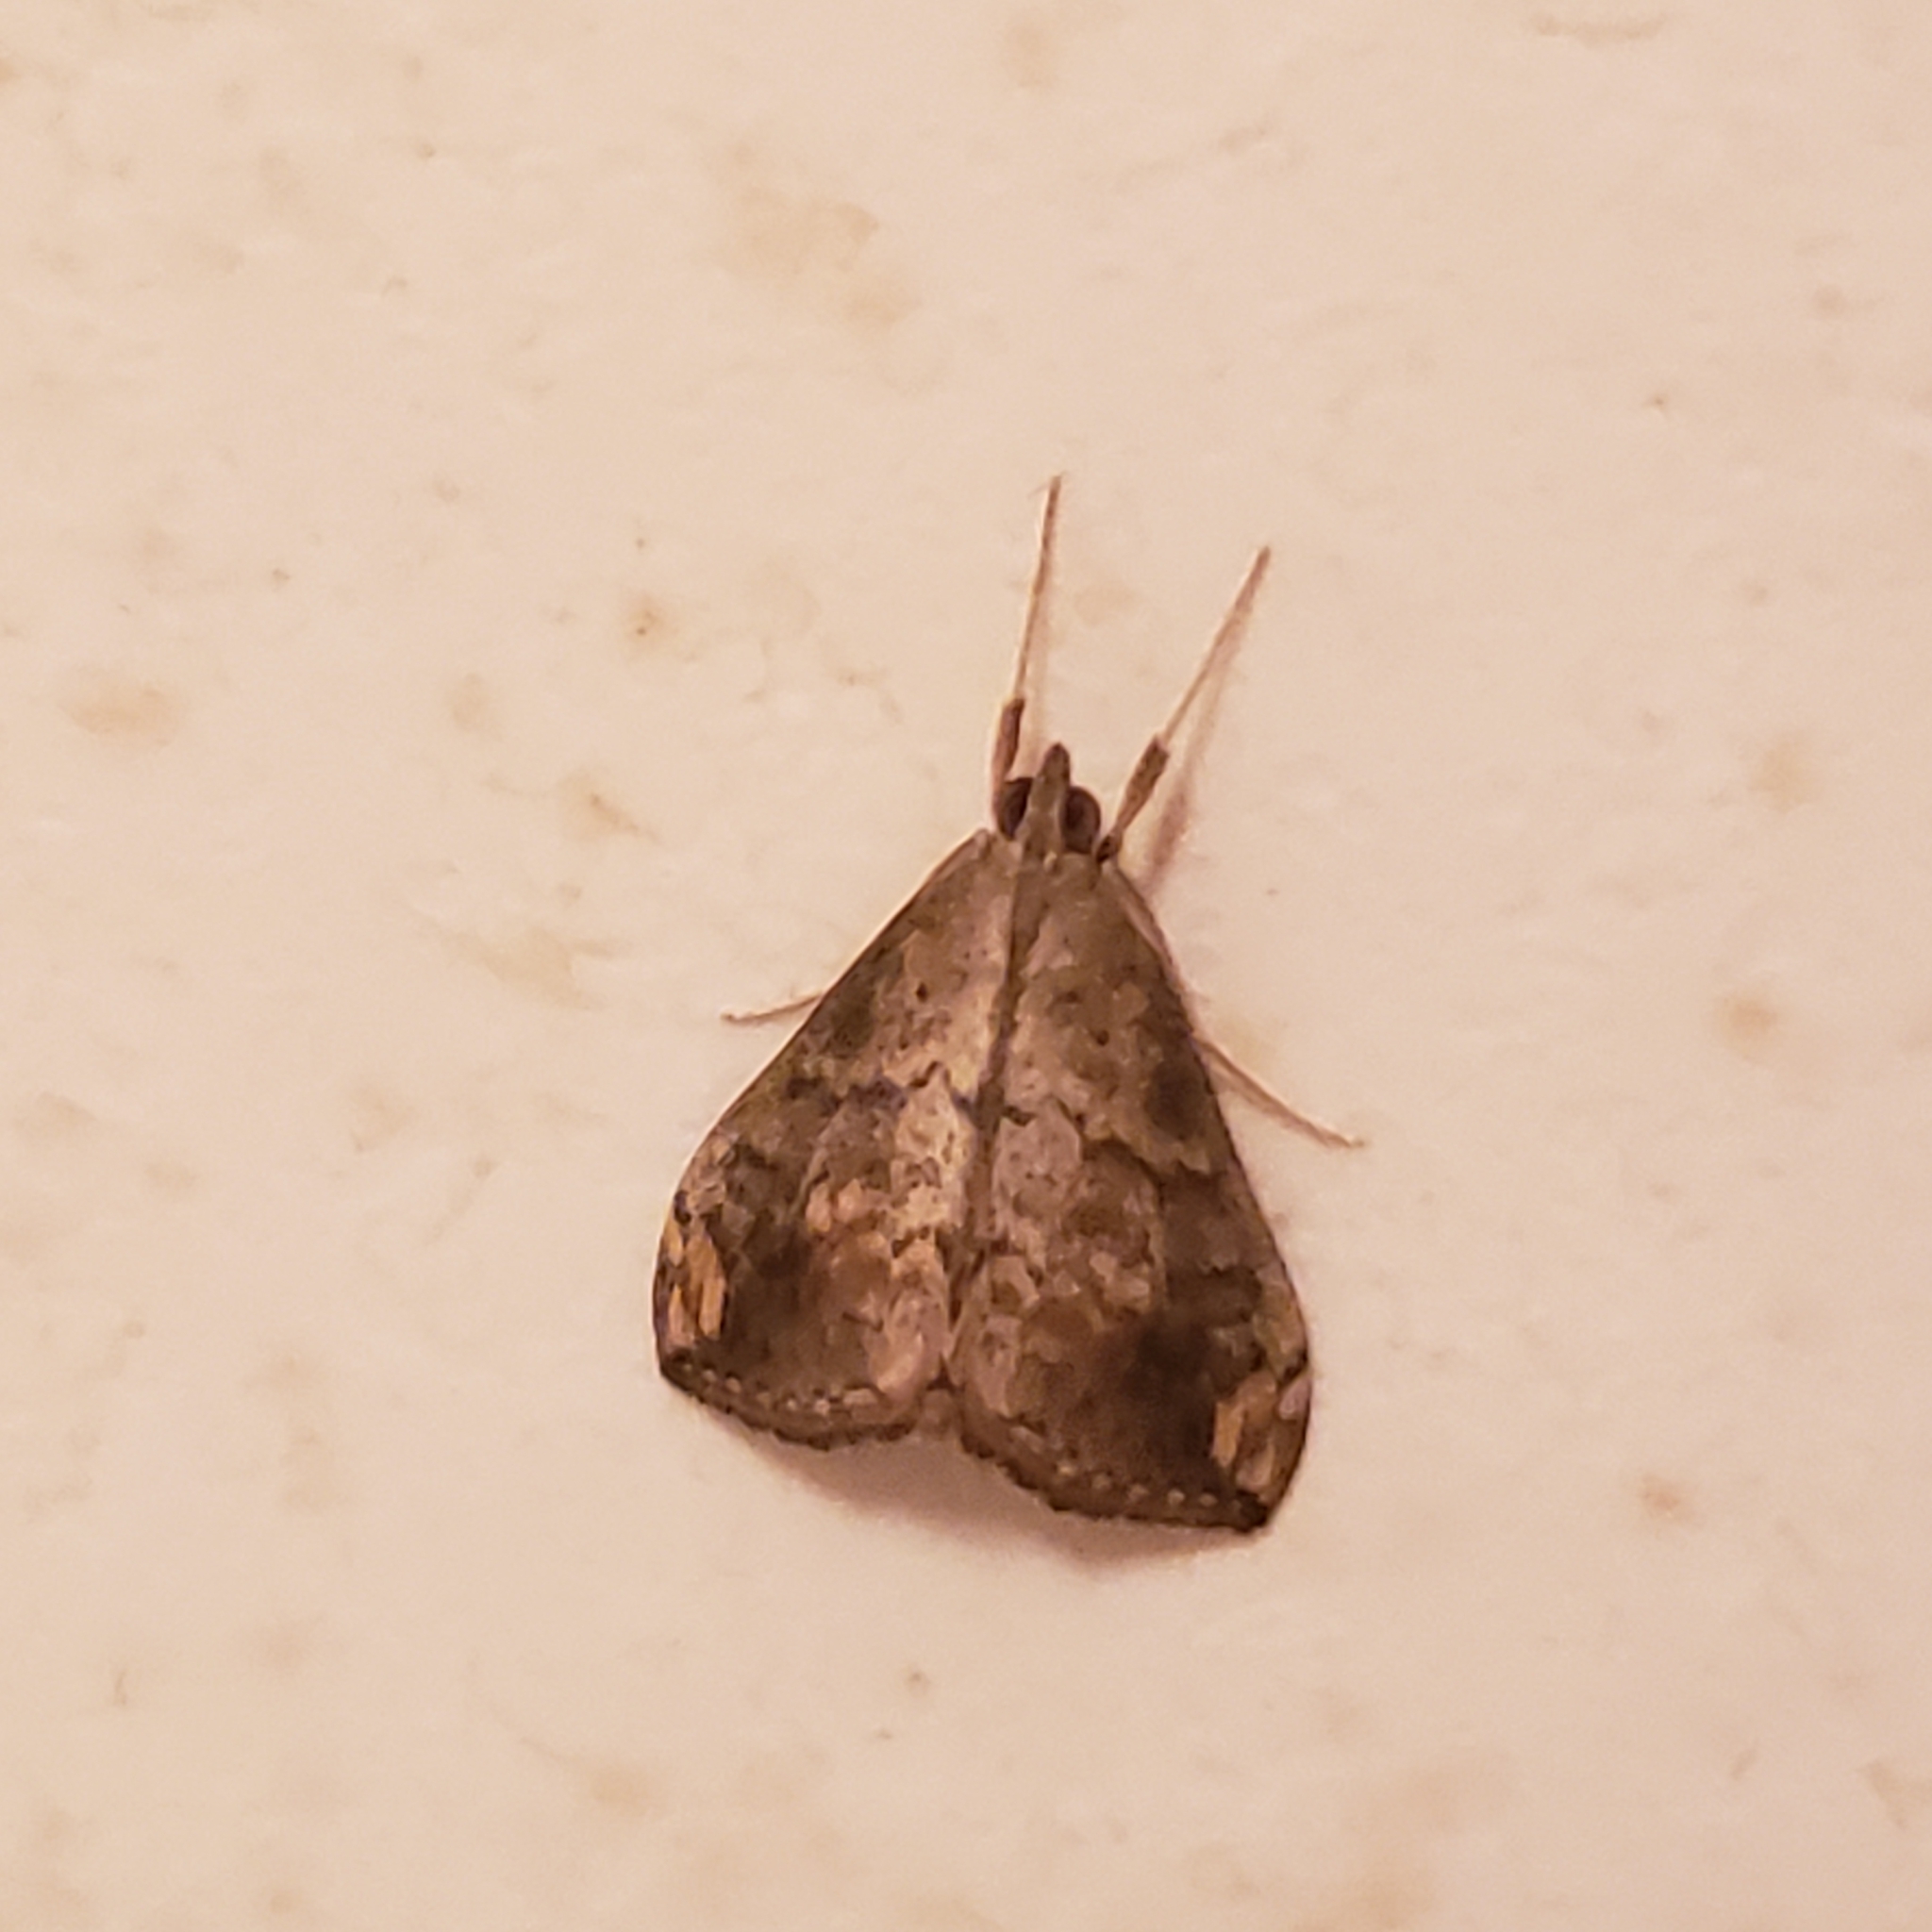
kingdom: Animalia
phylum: Arthropoda
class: Insecta
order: Lepidoptera
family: Crambidae
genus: Evergestis
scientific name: Evergestis rimosalis
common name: Cross-striped cabbageworm moth
